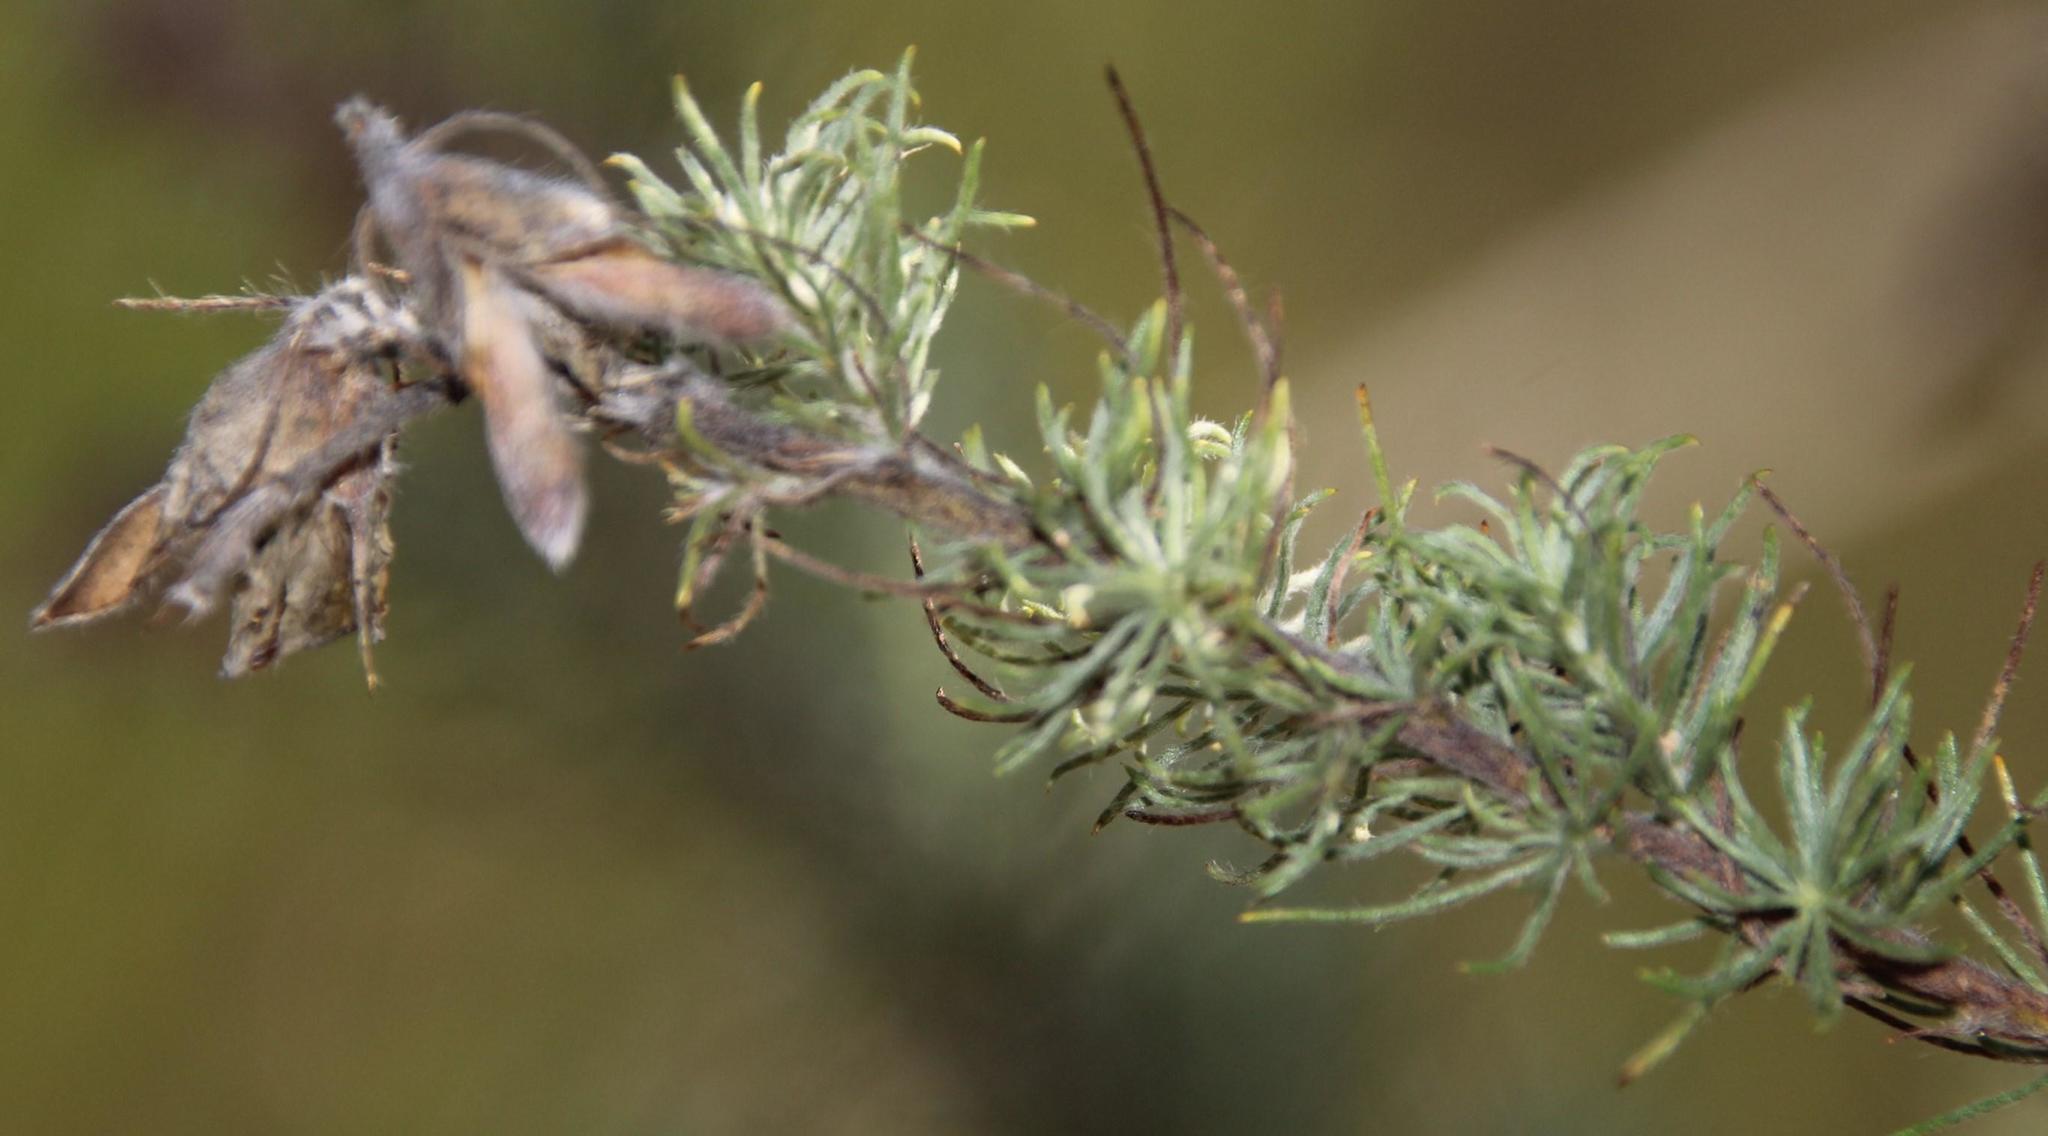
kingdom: Plantae
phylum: Tracheophyta
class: Magnoliopsida
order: Fabales
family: Fabaceae
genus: Aspalathus
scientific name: Aspalathus decora
